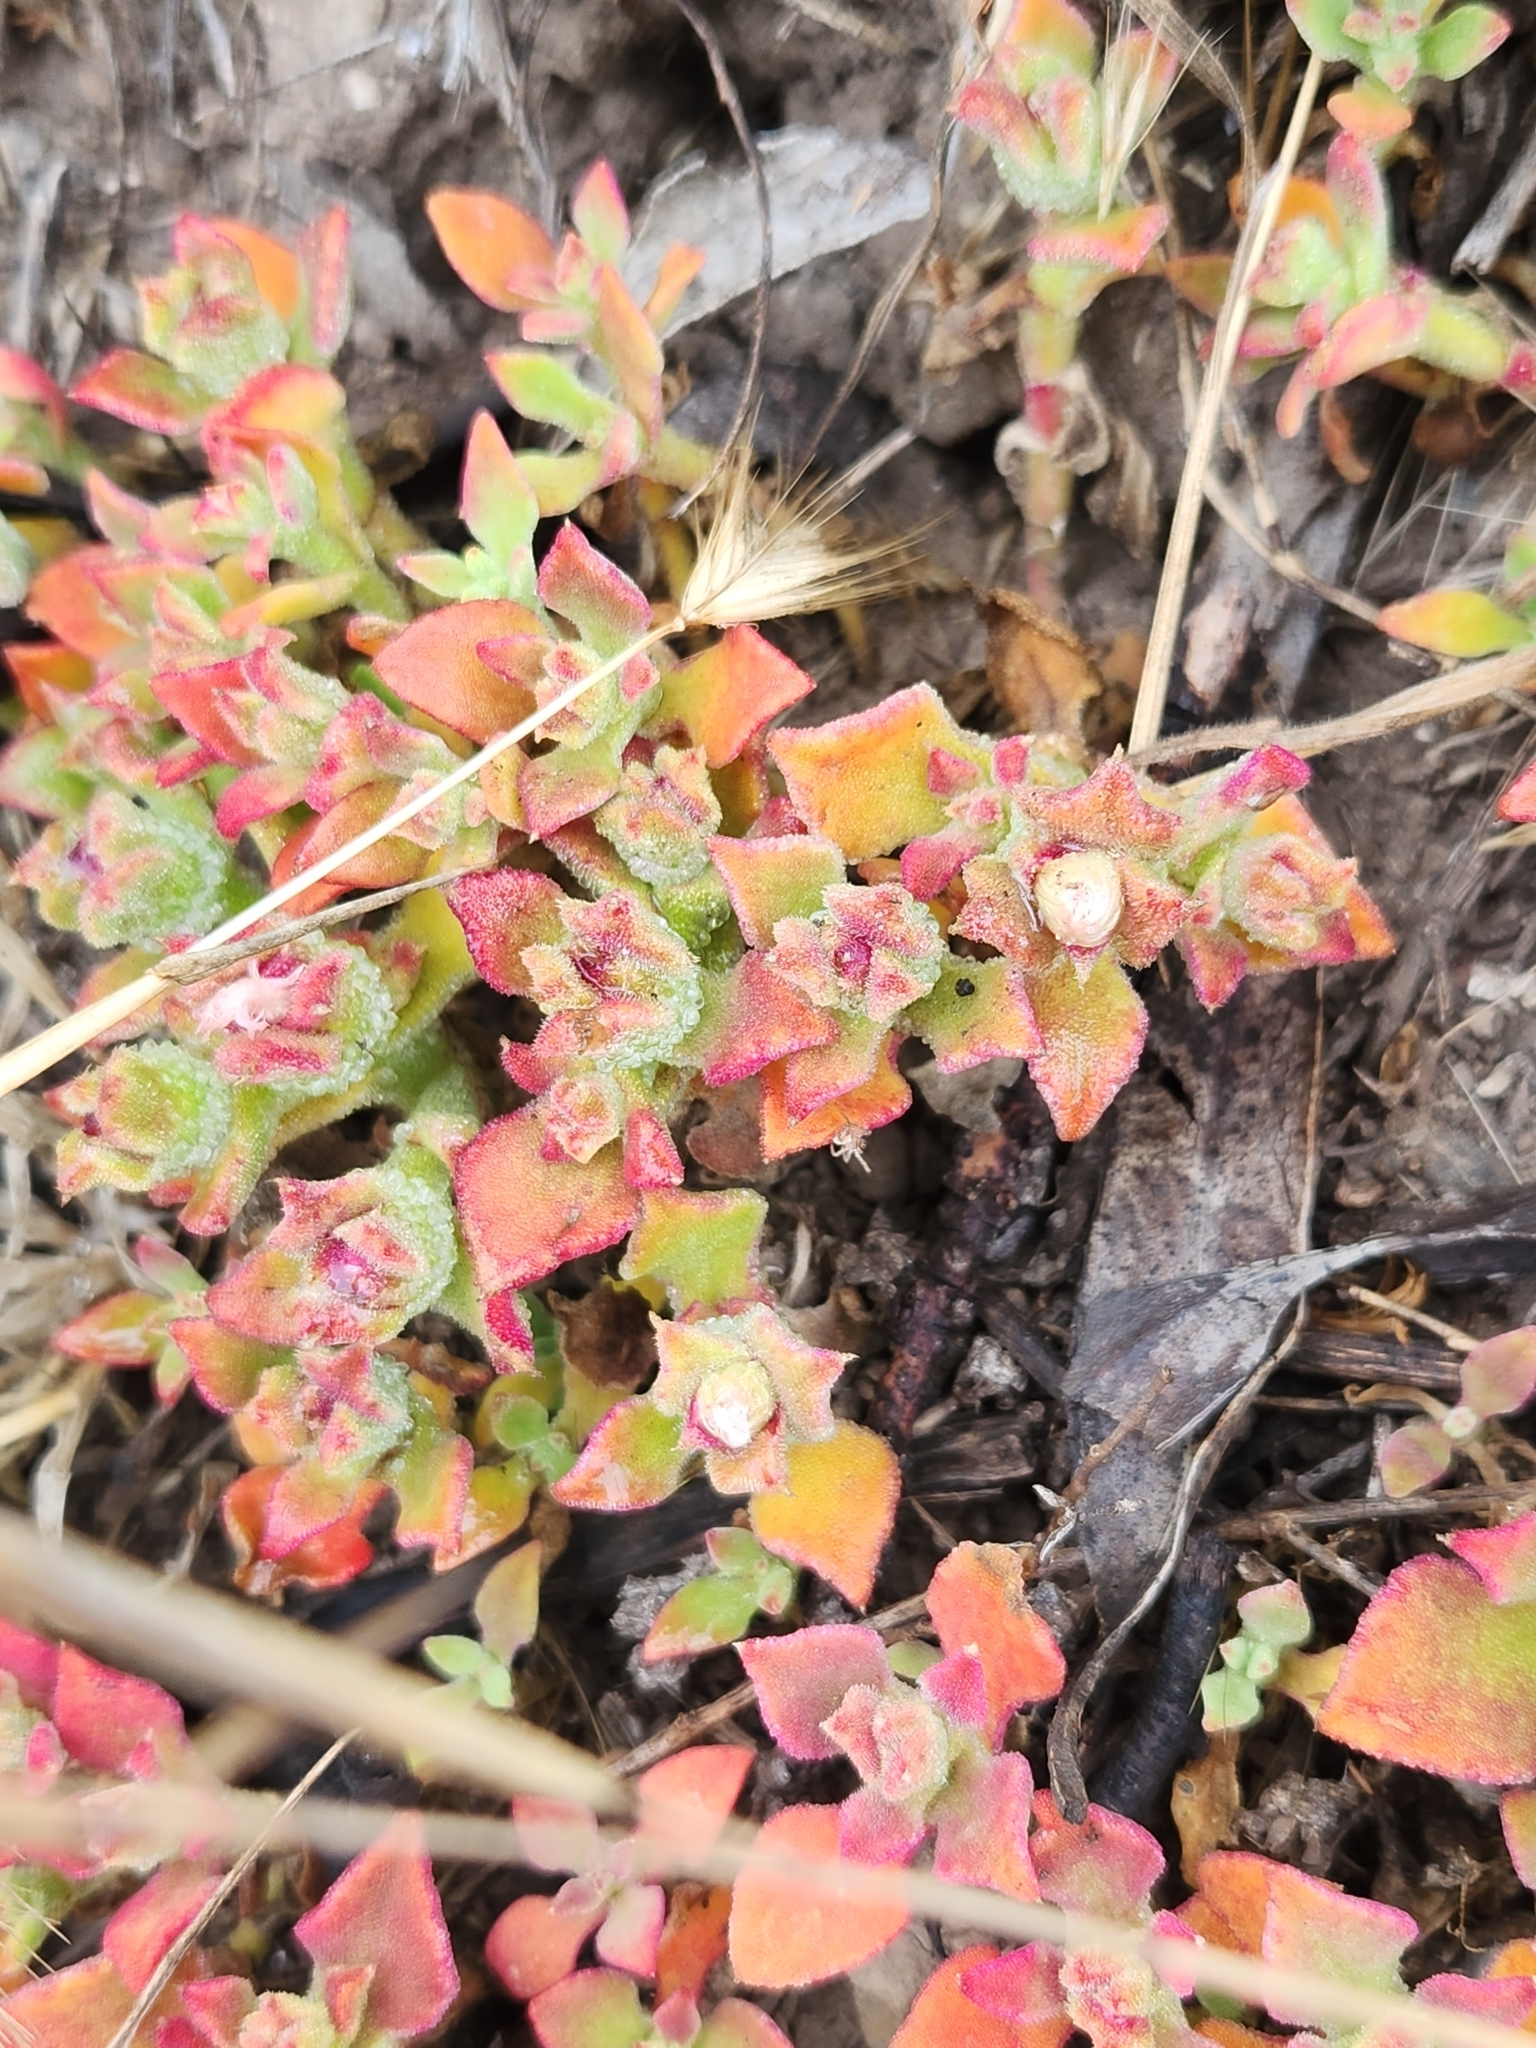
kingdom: Plantae
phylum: Tracheophyta
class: Magnoliopsida
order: Caryophyllales
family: Aizoaceae
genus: Mesembryanthemum
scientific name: Mesembryanthemum crystallinum
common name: Common iceplant
